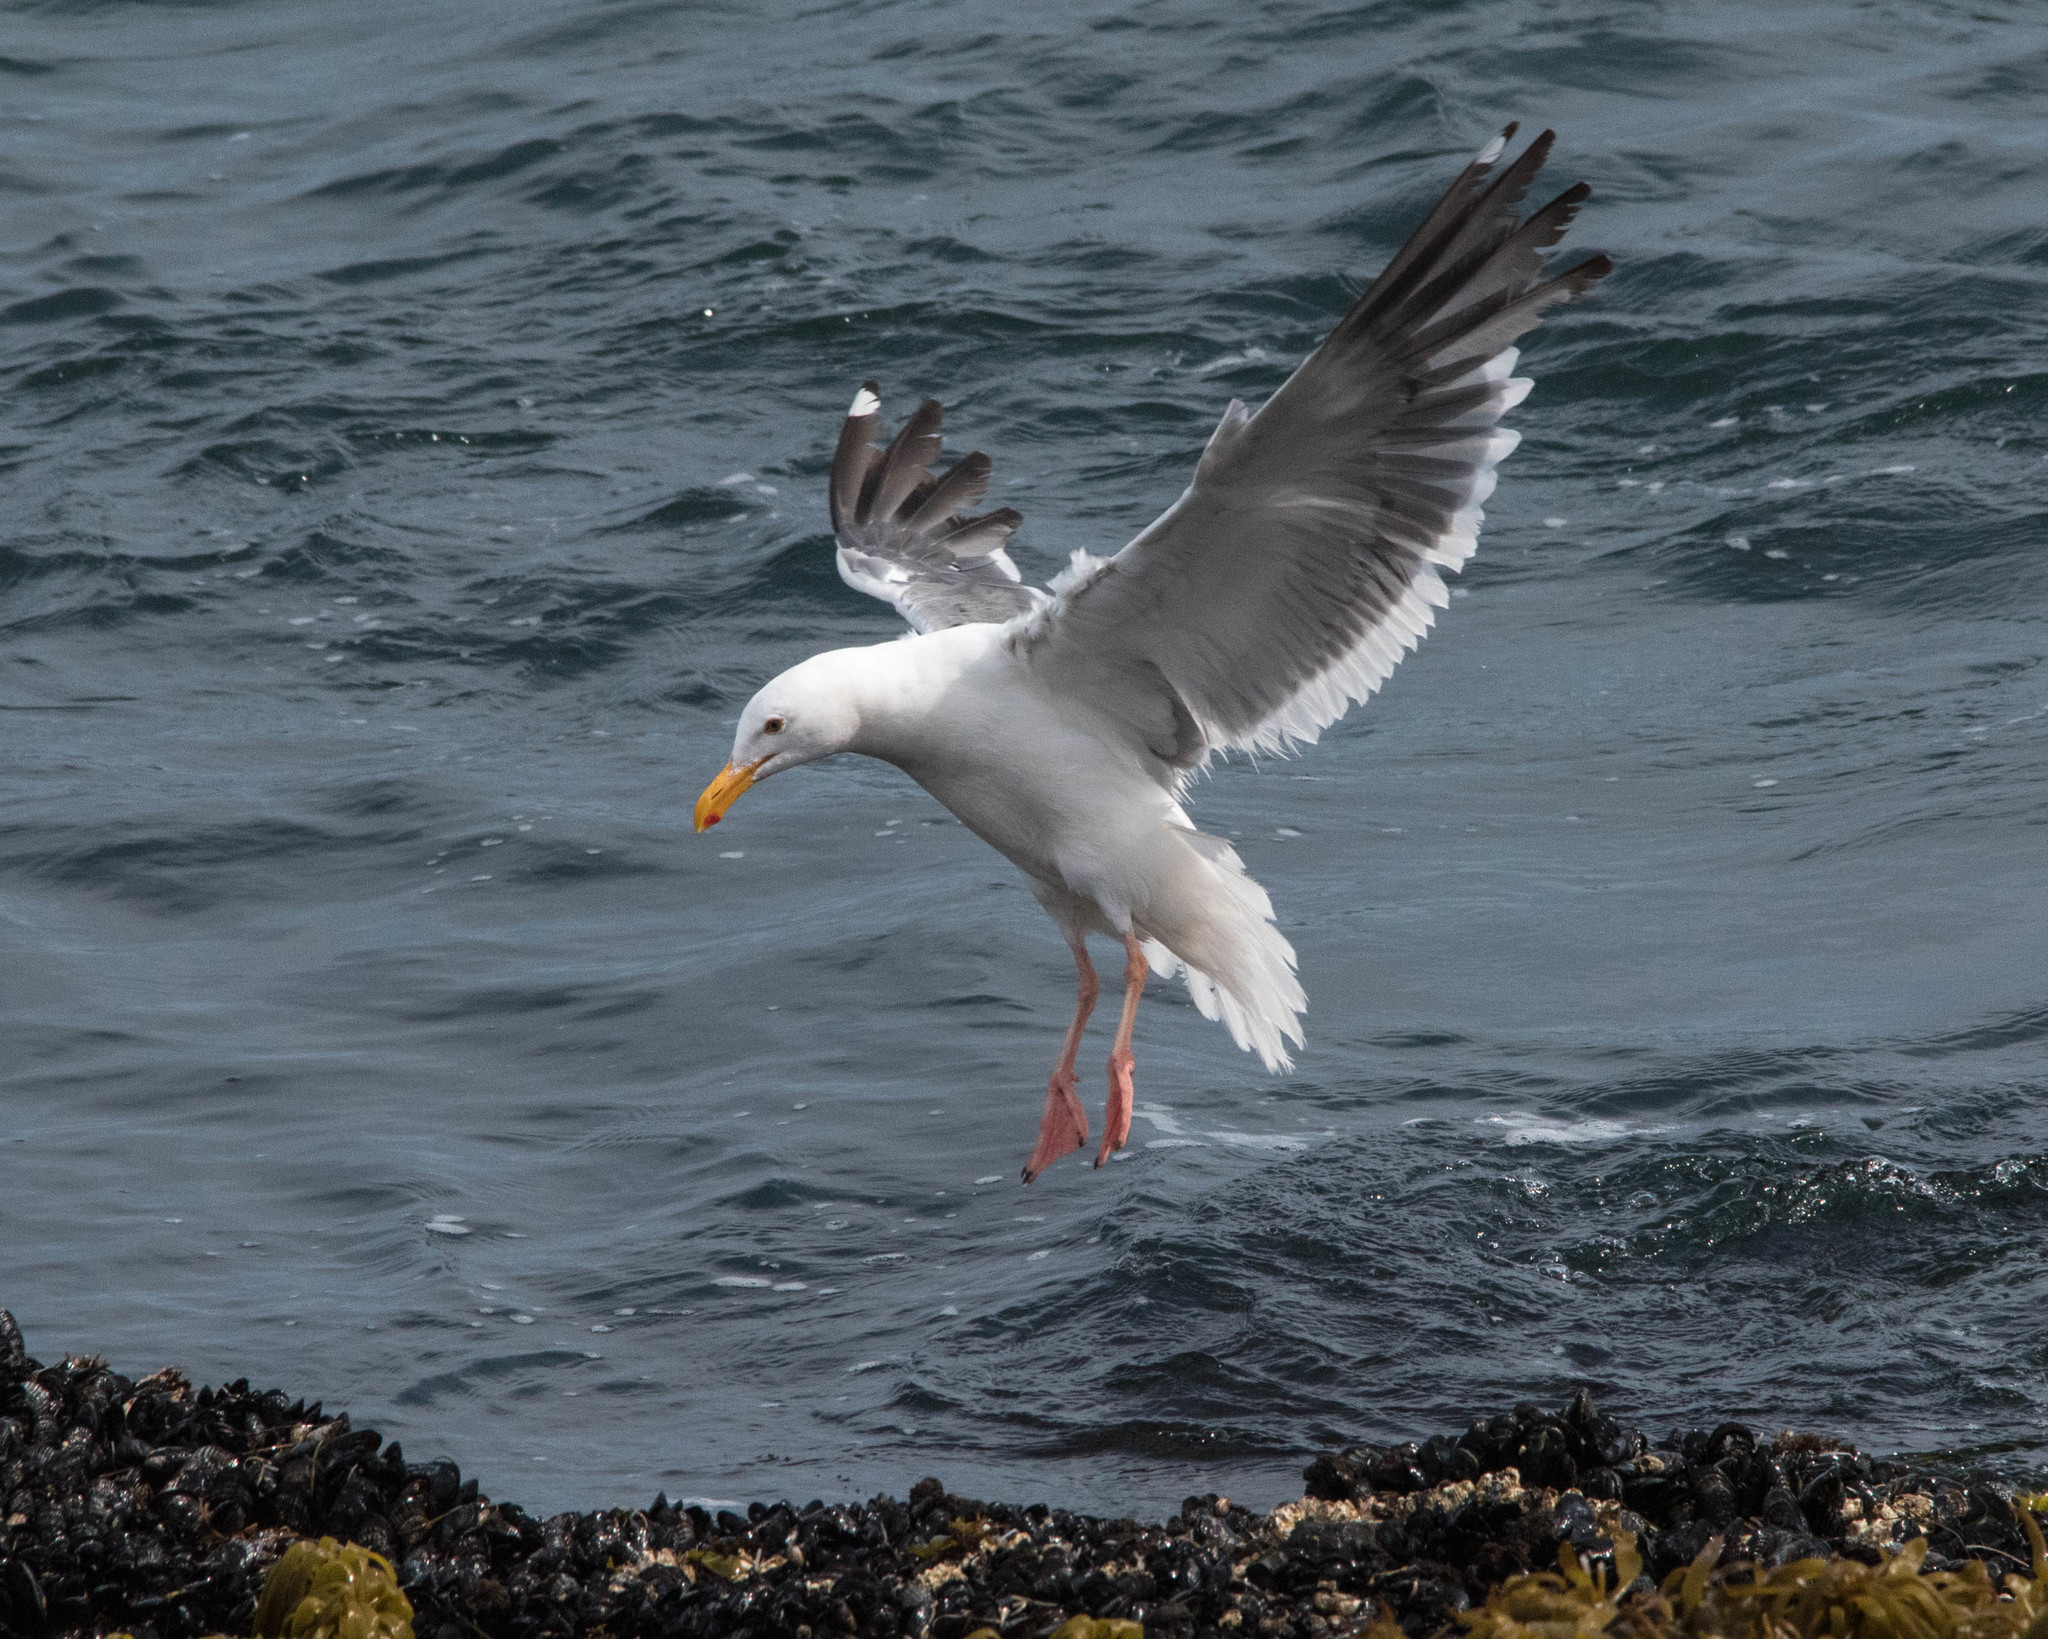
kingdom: Animalia
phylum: Chordata
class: Aves
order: Charadriiformes
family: Laridae
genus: Larus
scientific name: Larus occidentalis
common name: Western gull
